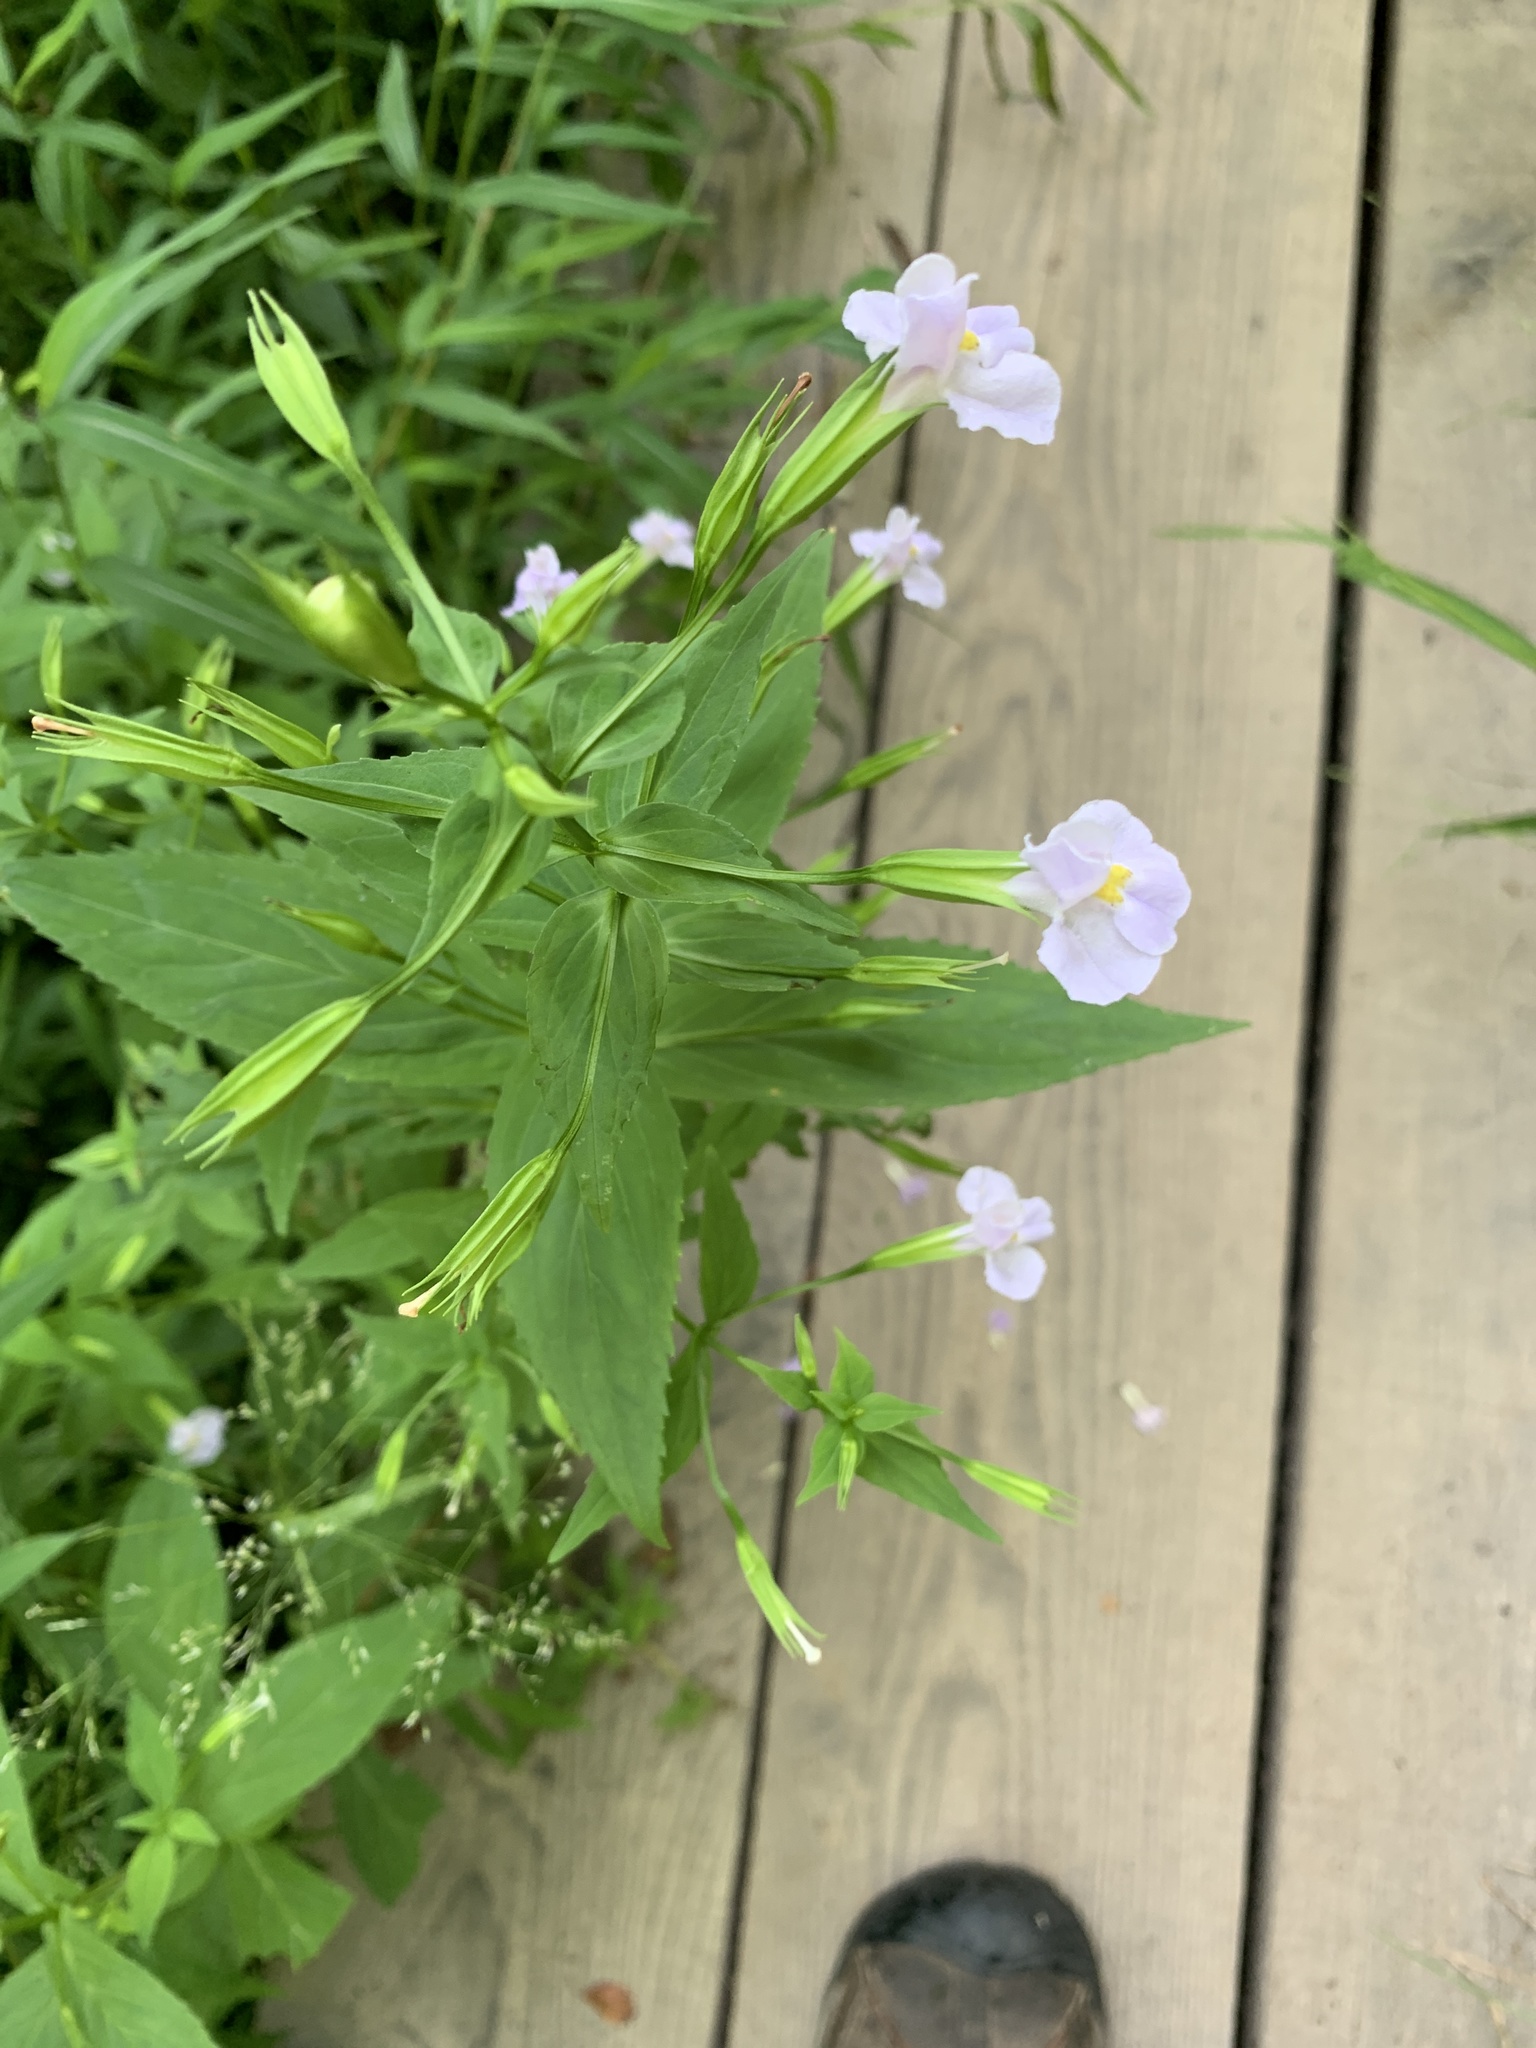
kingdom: Plantae
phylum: Tracheophyta
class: Magnoliopsida
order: Lamiales
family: Phrymaceae
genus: Mimulus
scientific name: Mimulus ringens
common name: Allegheny monkeyflower
